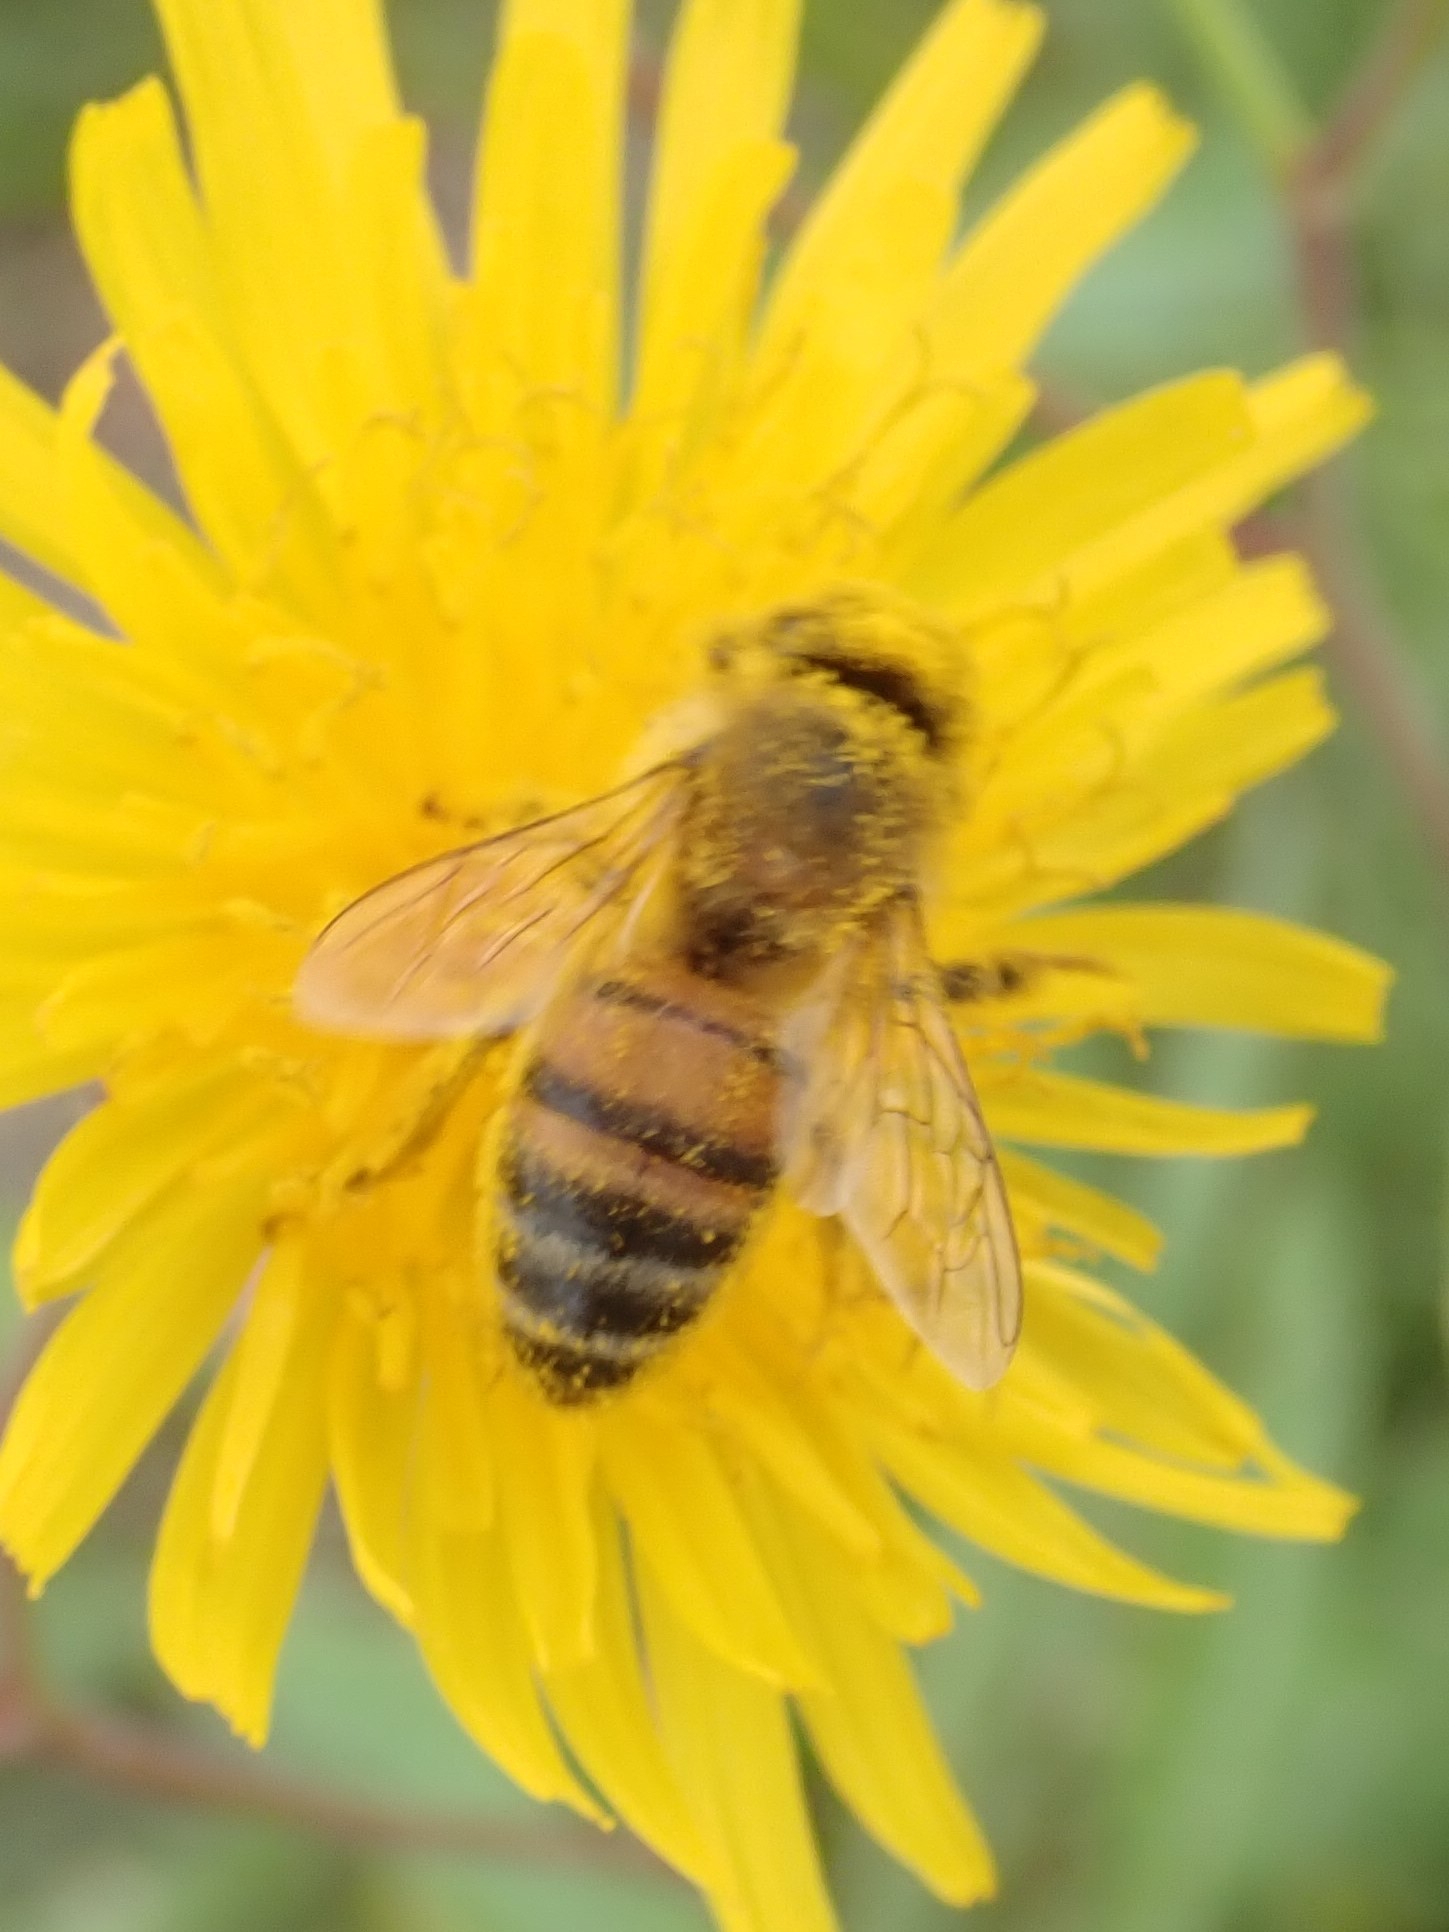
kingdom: Animalia
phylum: Arthropoda
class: Insecta
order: Hymenoptera
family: Apidae
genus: Apis
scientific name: Apis mellifera
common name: Honey bee
